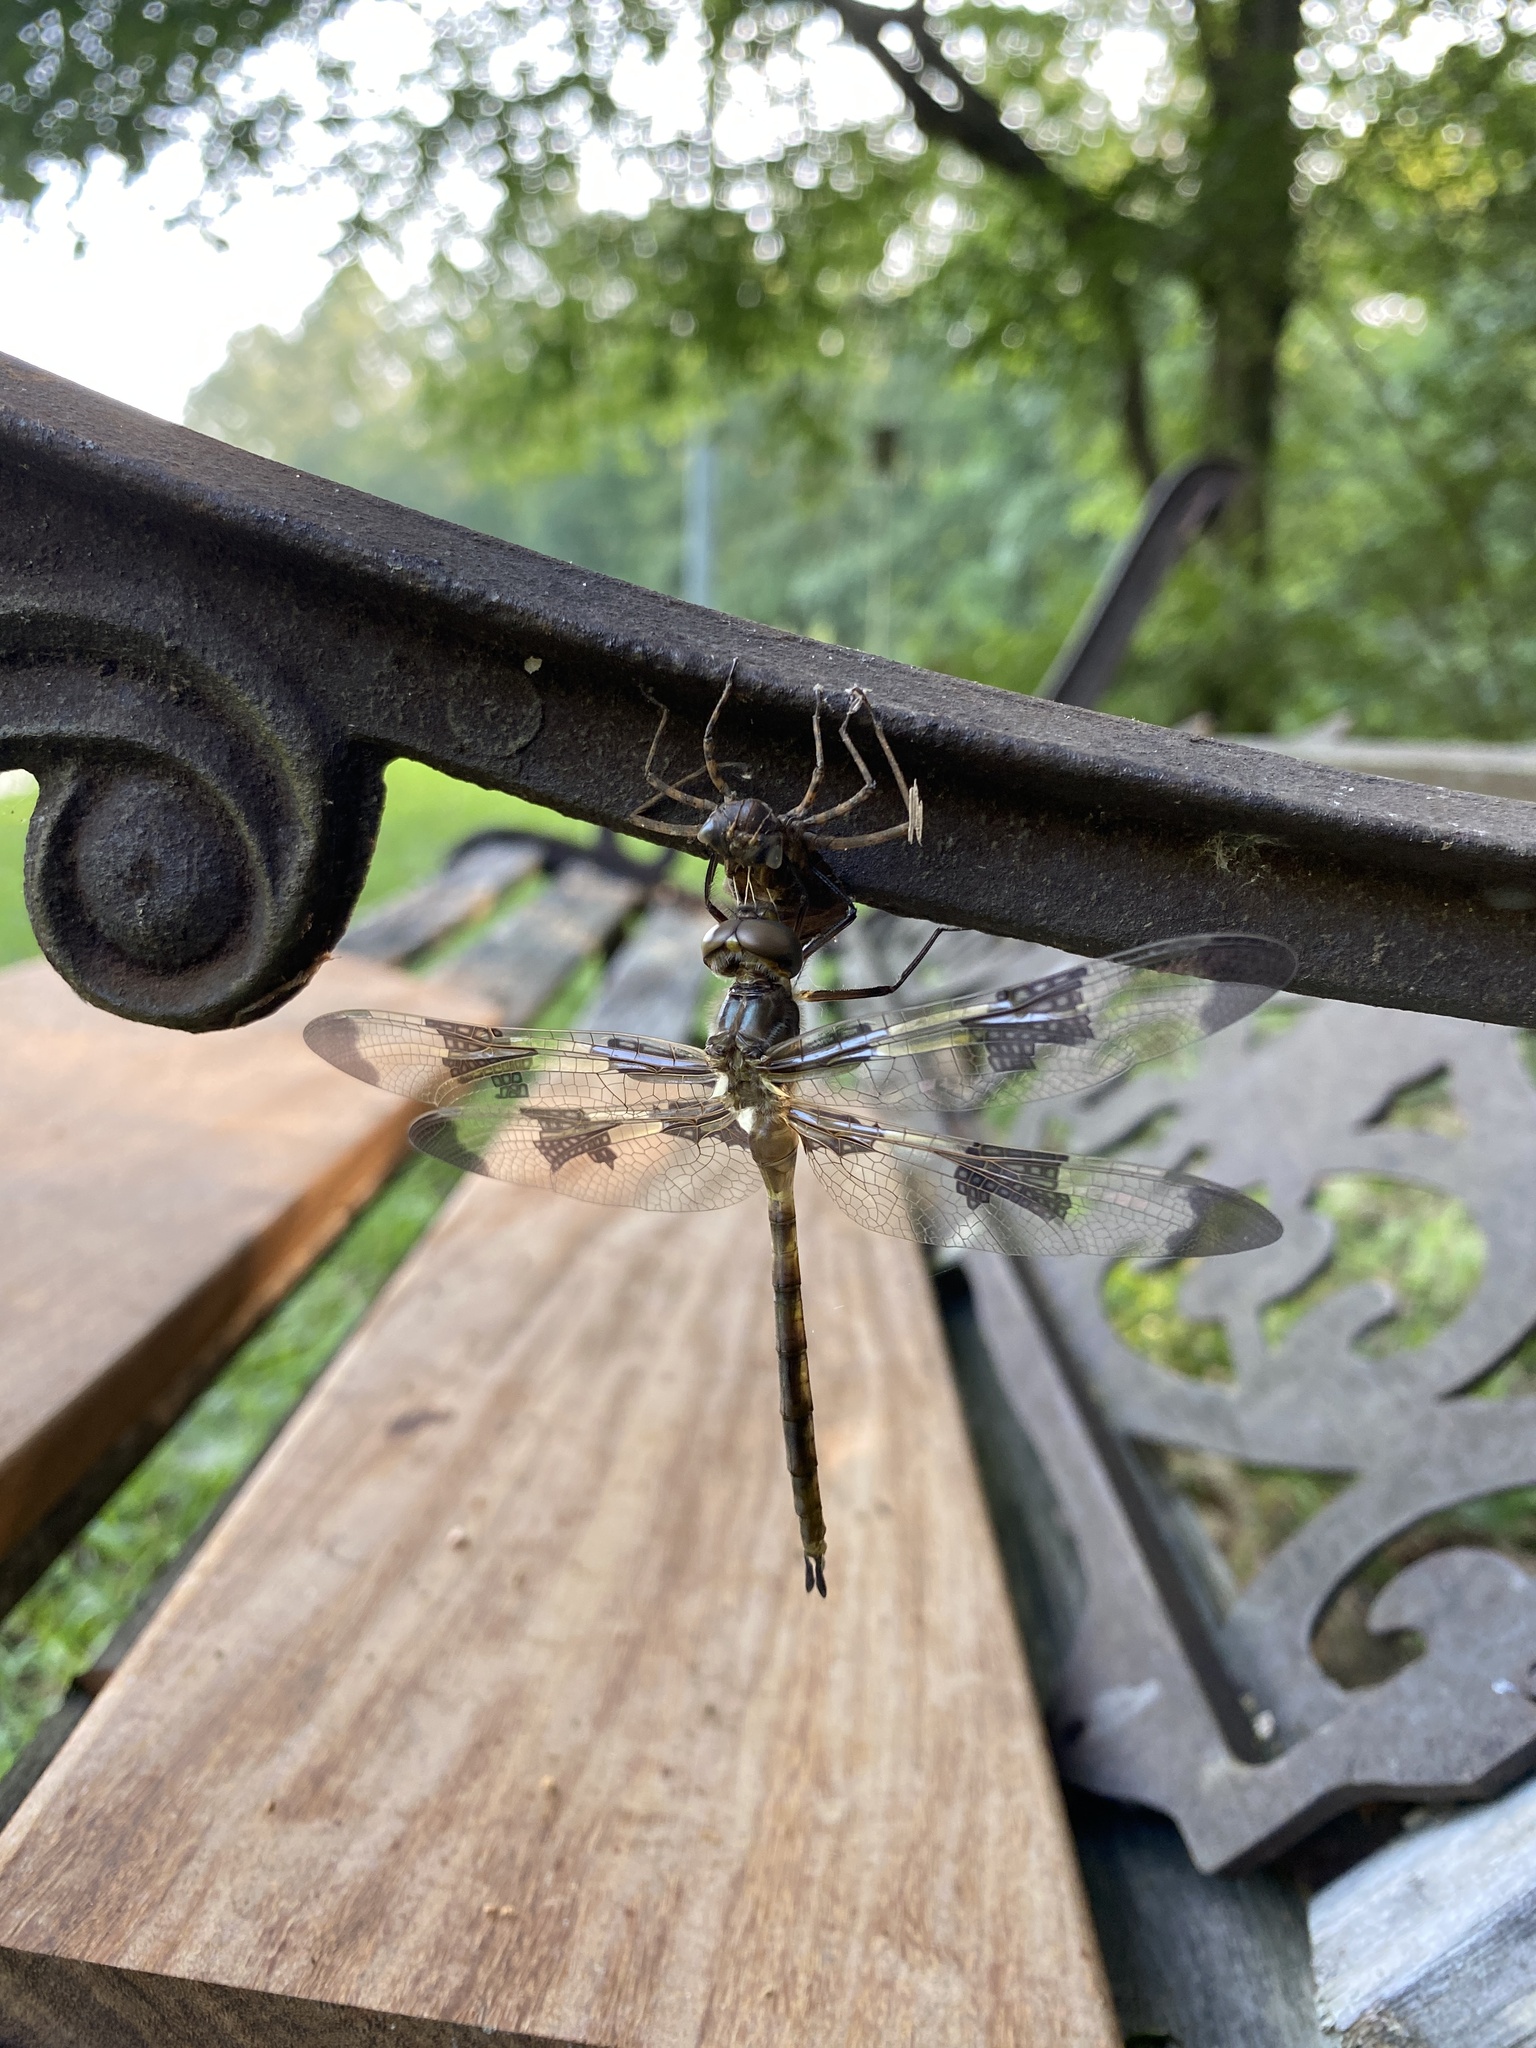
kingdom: Animalia
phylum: Arthropoda
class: Insecta
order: Odonata
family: Corduliidae
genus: Epitheca
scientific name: Epitheca princeps
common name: Prince baskettail
